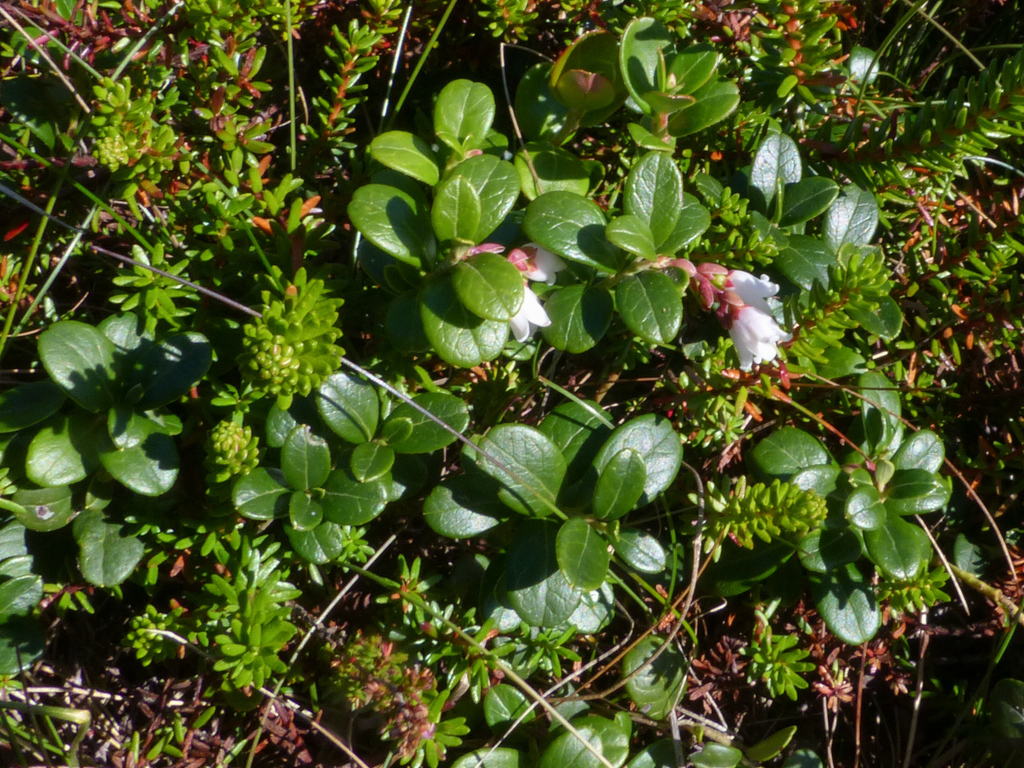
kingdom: Plantae
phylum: Tracheophyta
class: Magnoliopsida
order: Ericales
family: Ericaceae
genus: Vaccinium
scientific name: Vaccinium vitis-idaea
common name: Cowberry
